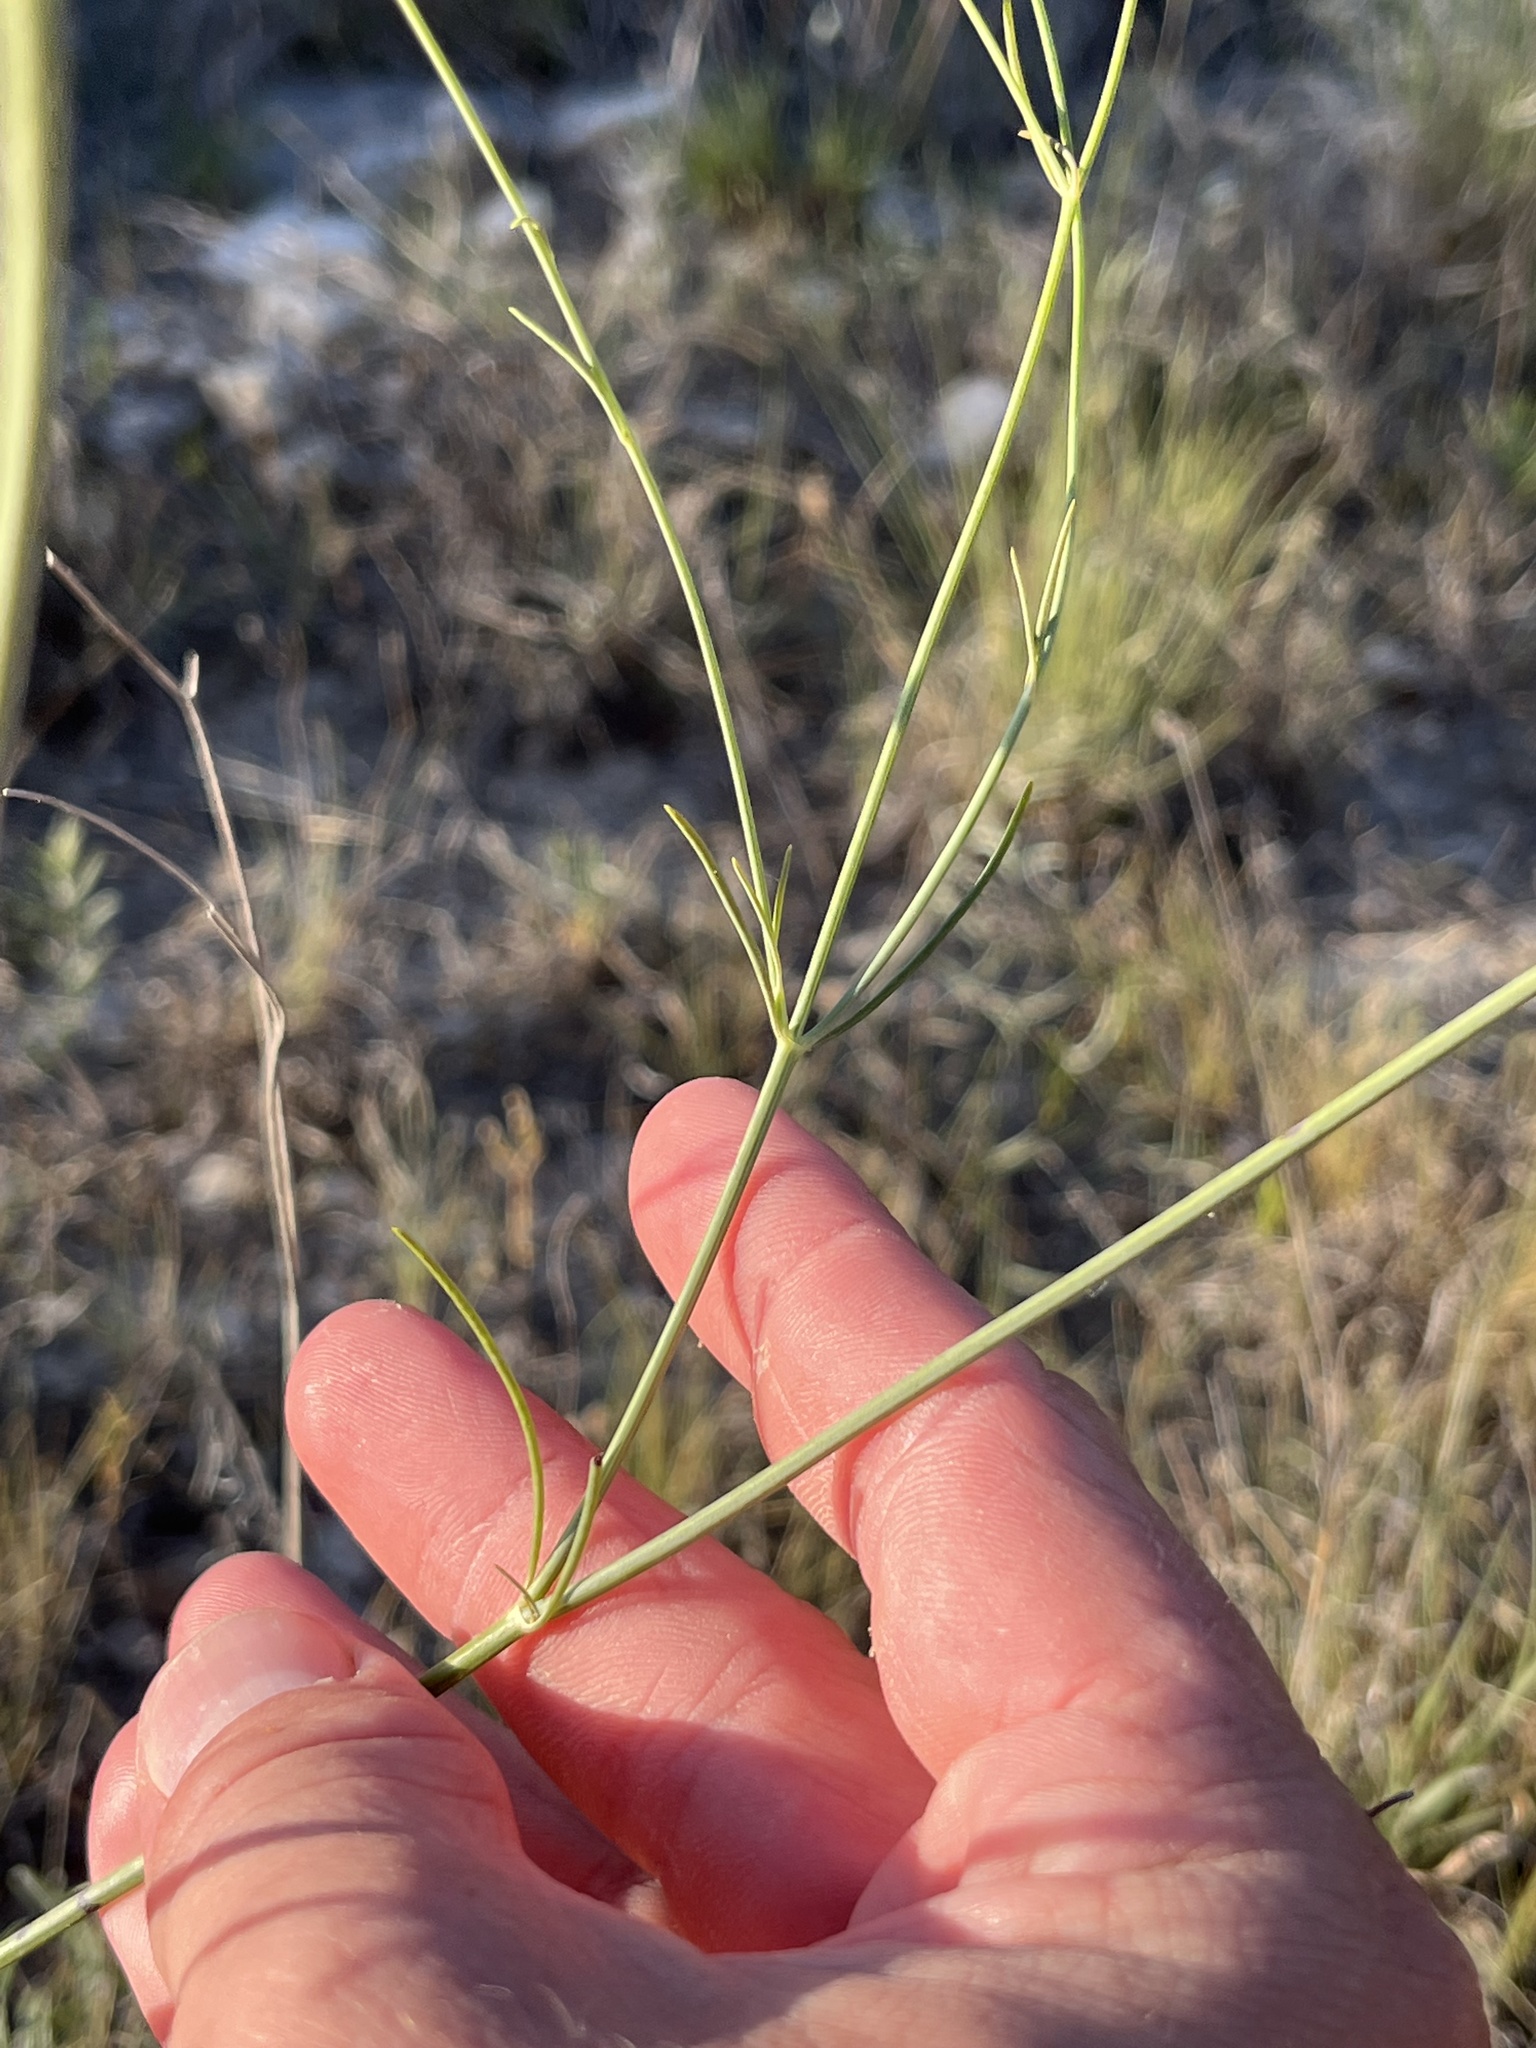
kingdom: Plantae
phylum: Tracheophyta
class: Magnoliopsida
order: Asterales
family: Asteraceae
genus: Thelesperma
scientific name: Thelesperma simplicifolium
